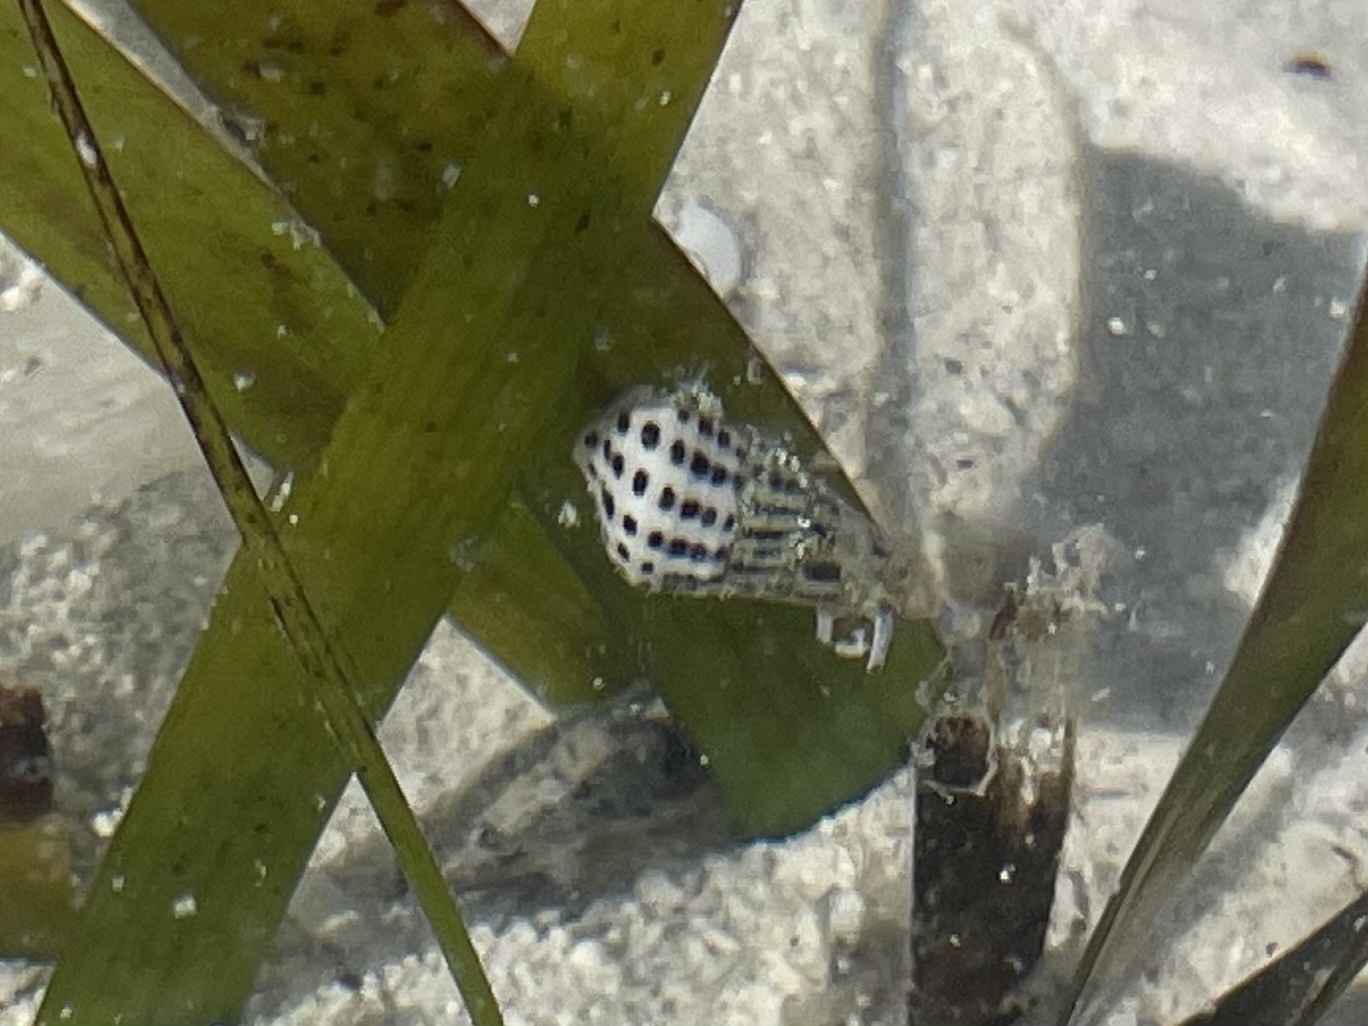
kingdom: Animalia
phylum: Mollusca
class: Gastropoda
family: Cerithiidae
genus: Cerithium
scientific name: Cerithium litteratum
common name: Stocky cerith
